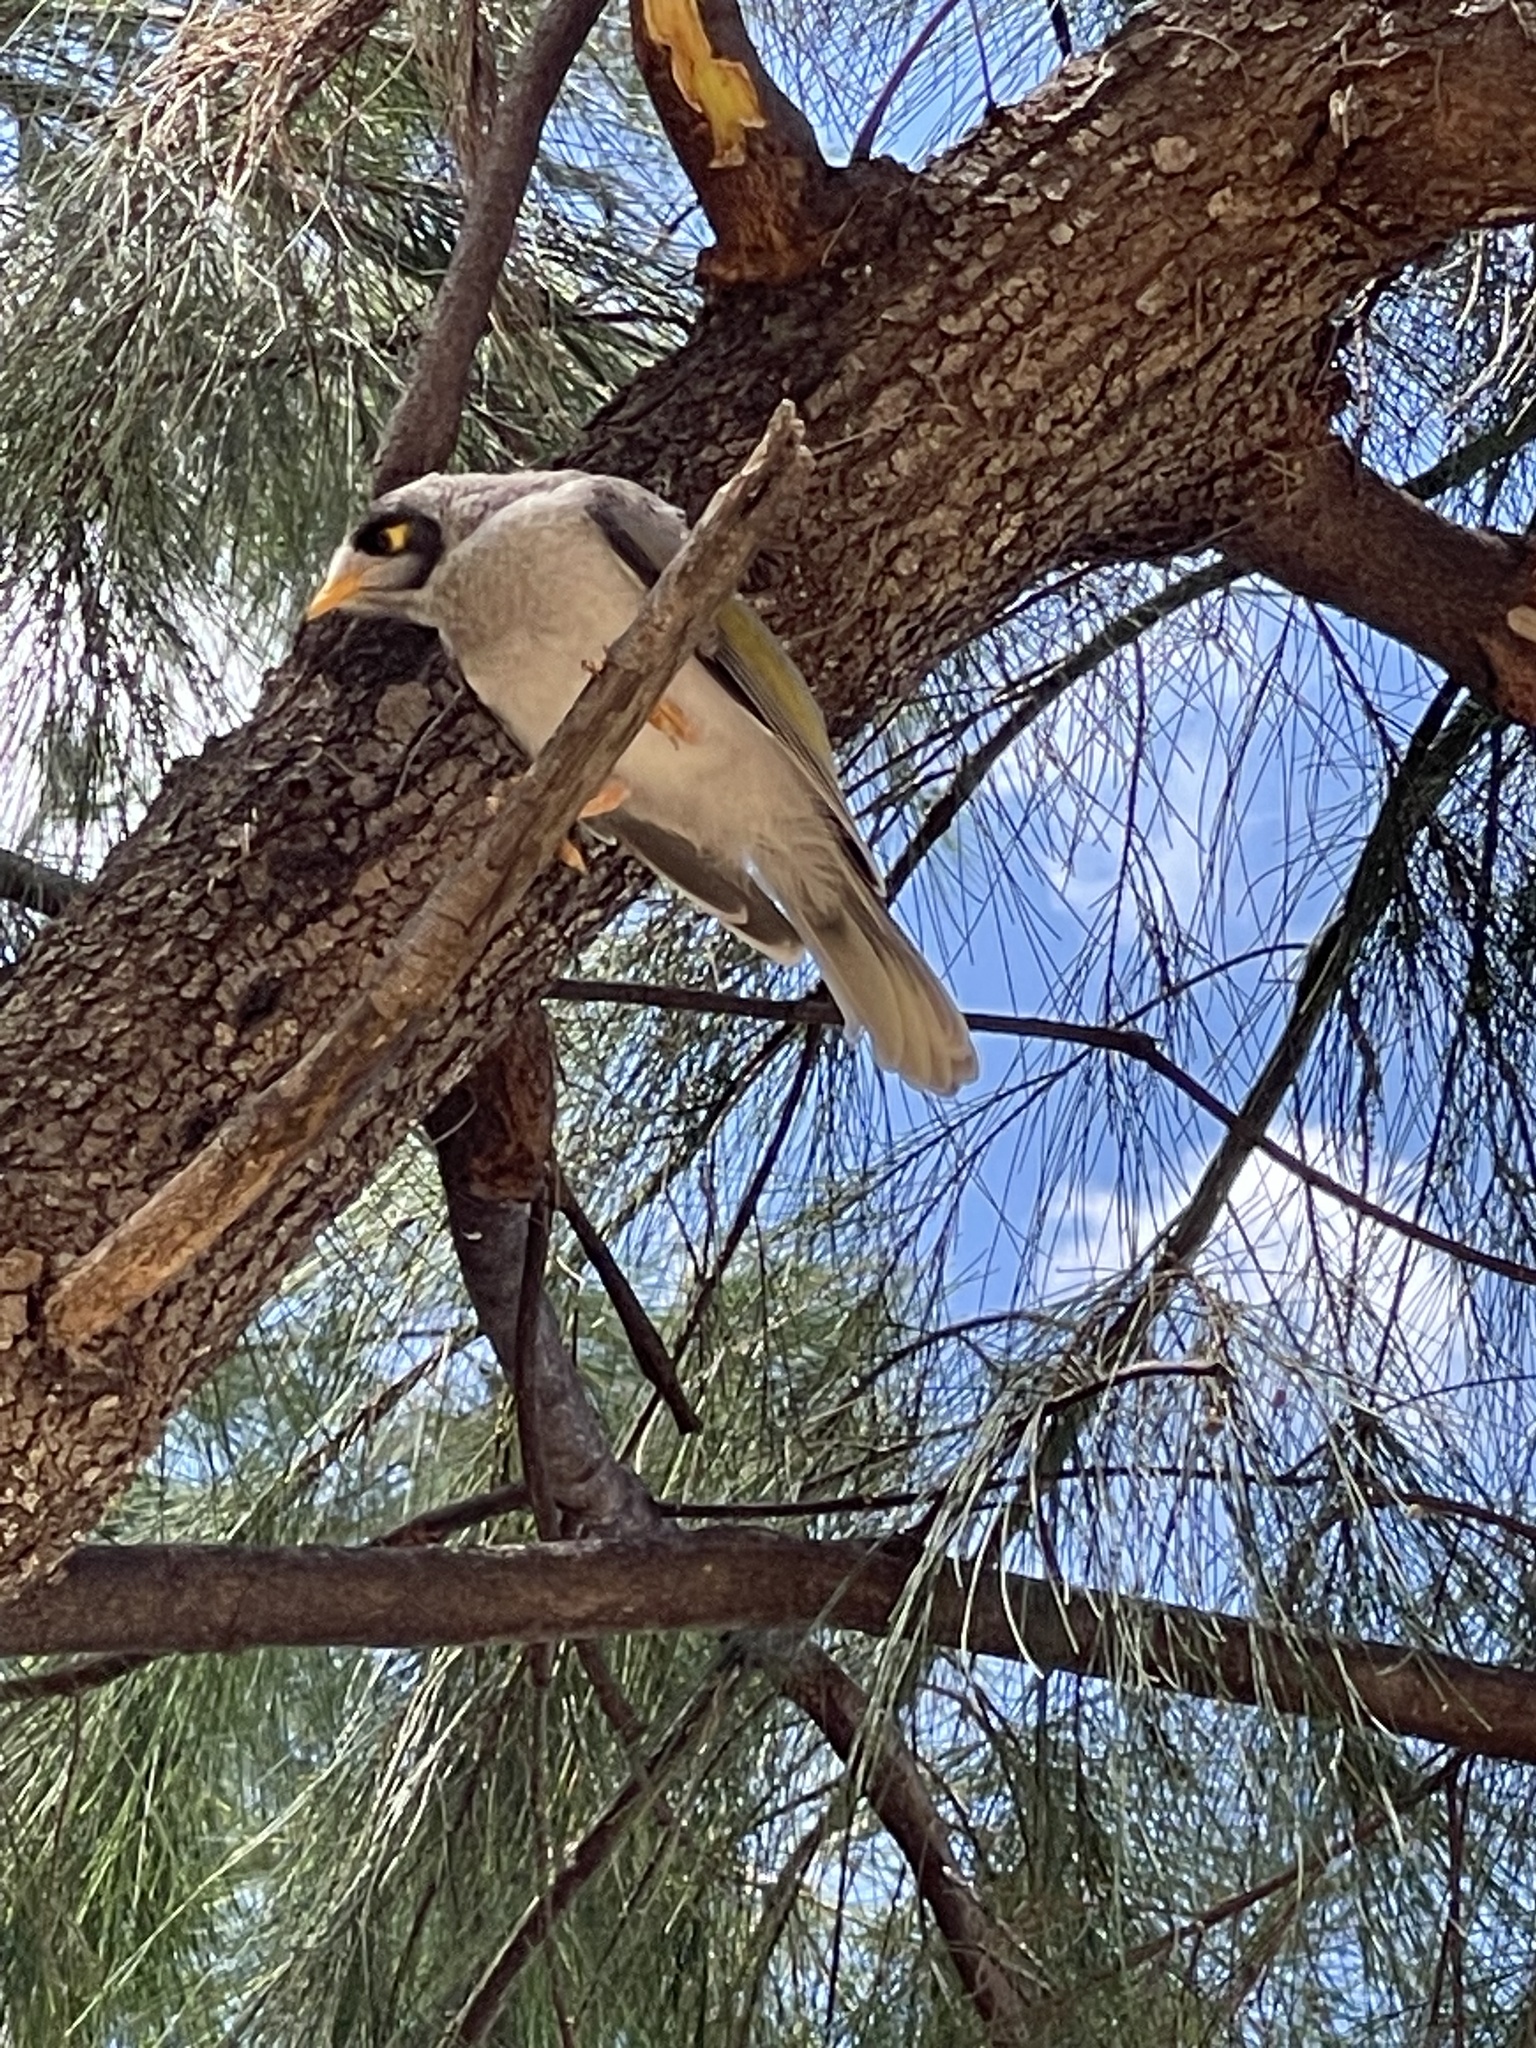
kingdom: Animalia
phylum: Chordata
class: Aves
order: Passeriformes
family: Meliphagidae
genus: Manorina
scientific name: Manorina melanocephala
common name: Noisy miner
